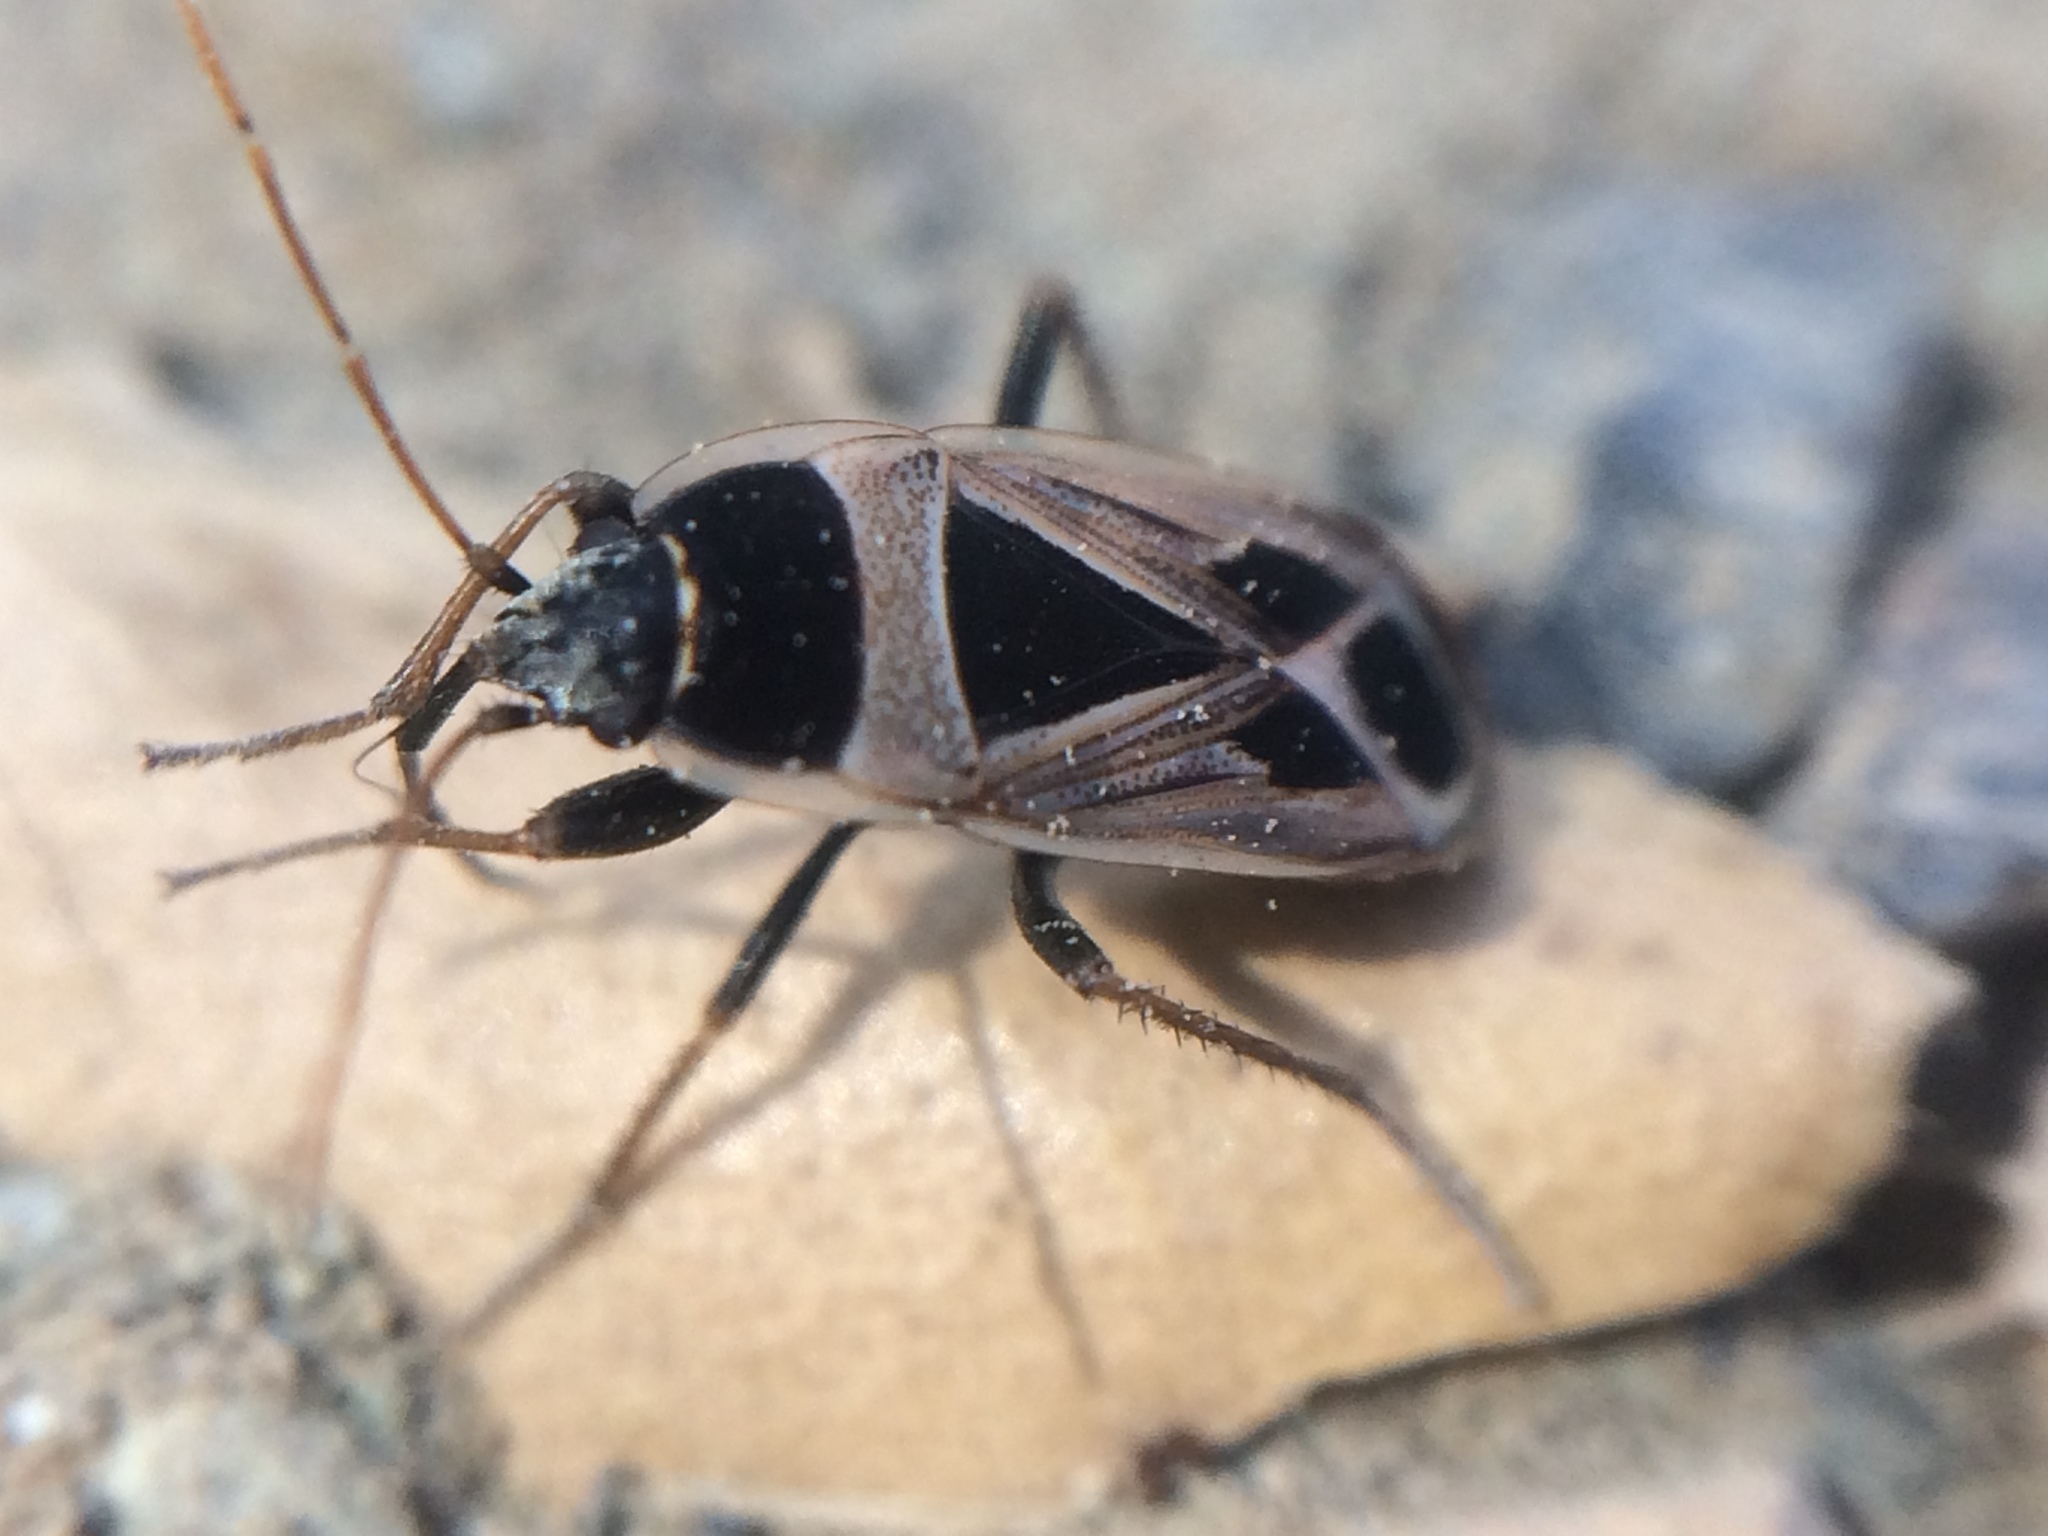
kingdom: Animalia
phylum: Arthropoda
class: Insecta
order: Hemiptera
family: Rhyparochromidae
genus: Xanthochilus
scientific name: Xanthochilus saturnius
